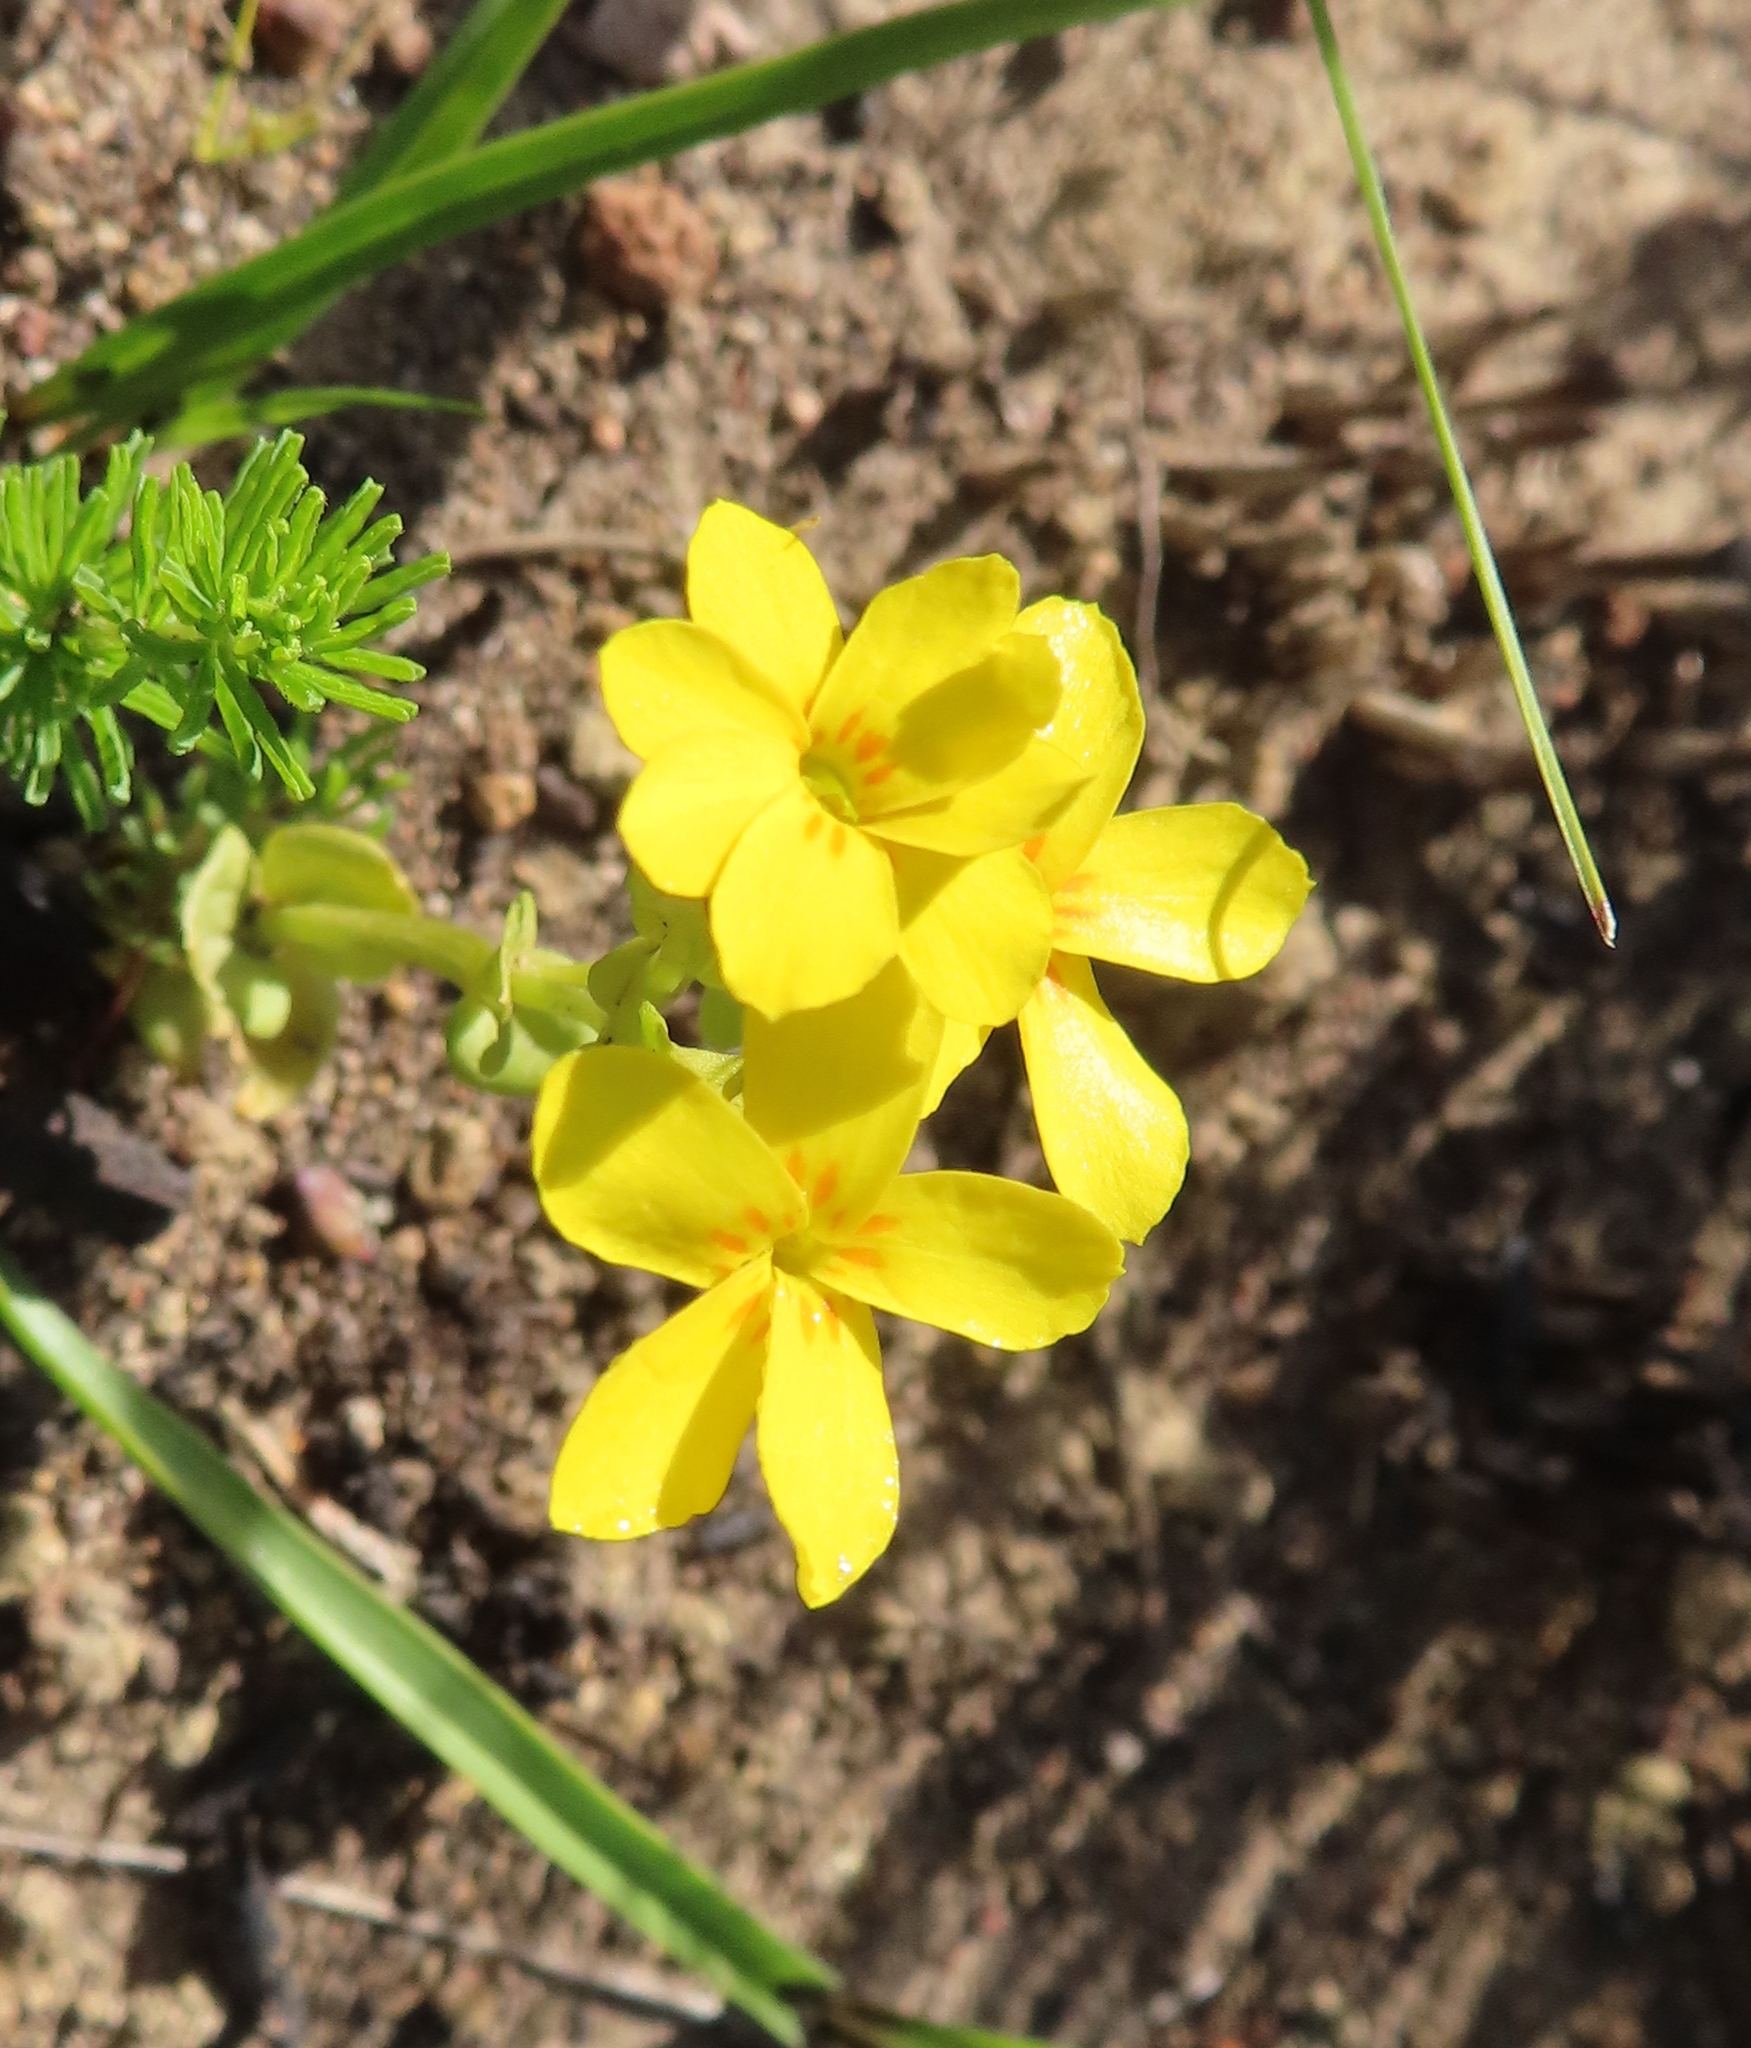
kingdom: Plantae
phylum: Tracheophyta
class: Magnoliopsida
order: Gentianales
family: Gentianaceae
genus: Sebaea
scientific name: Sebaea exacoides
